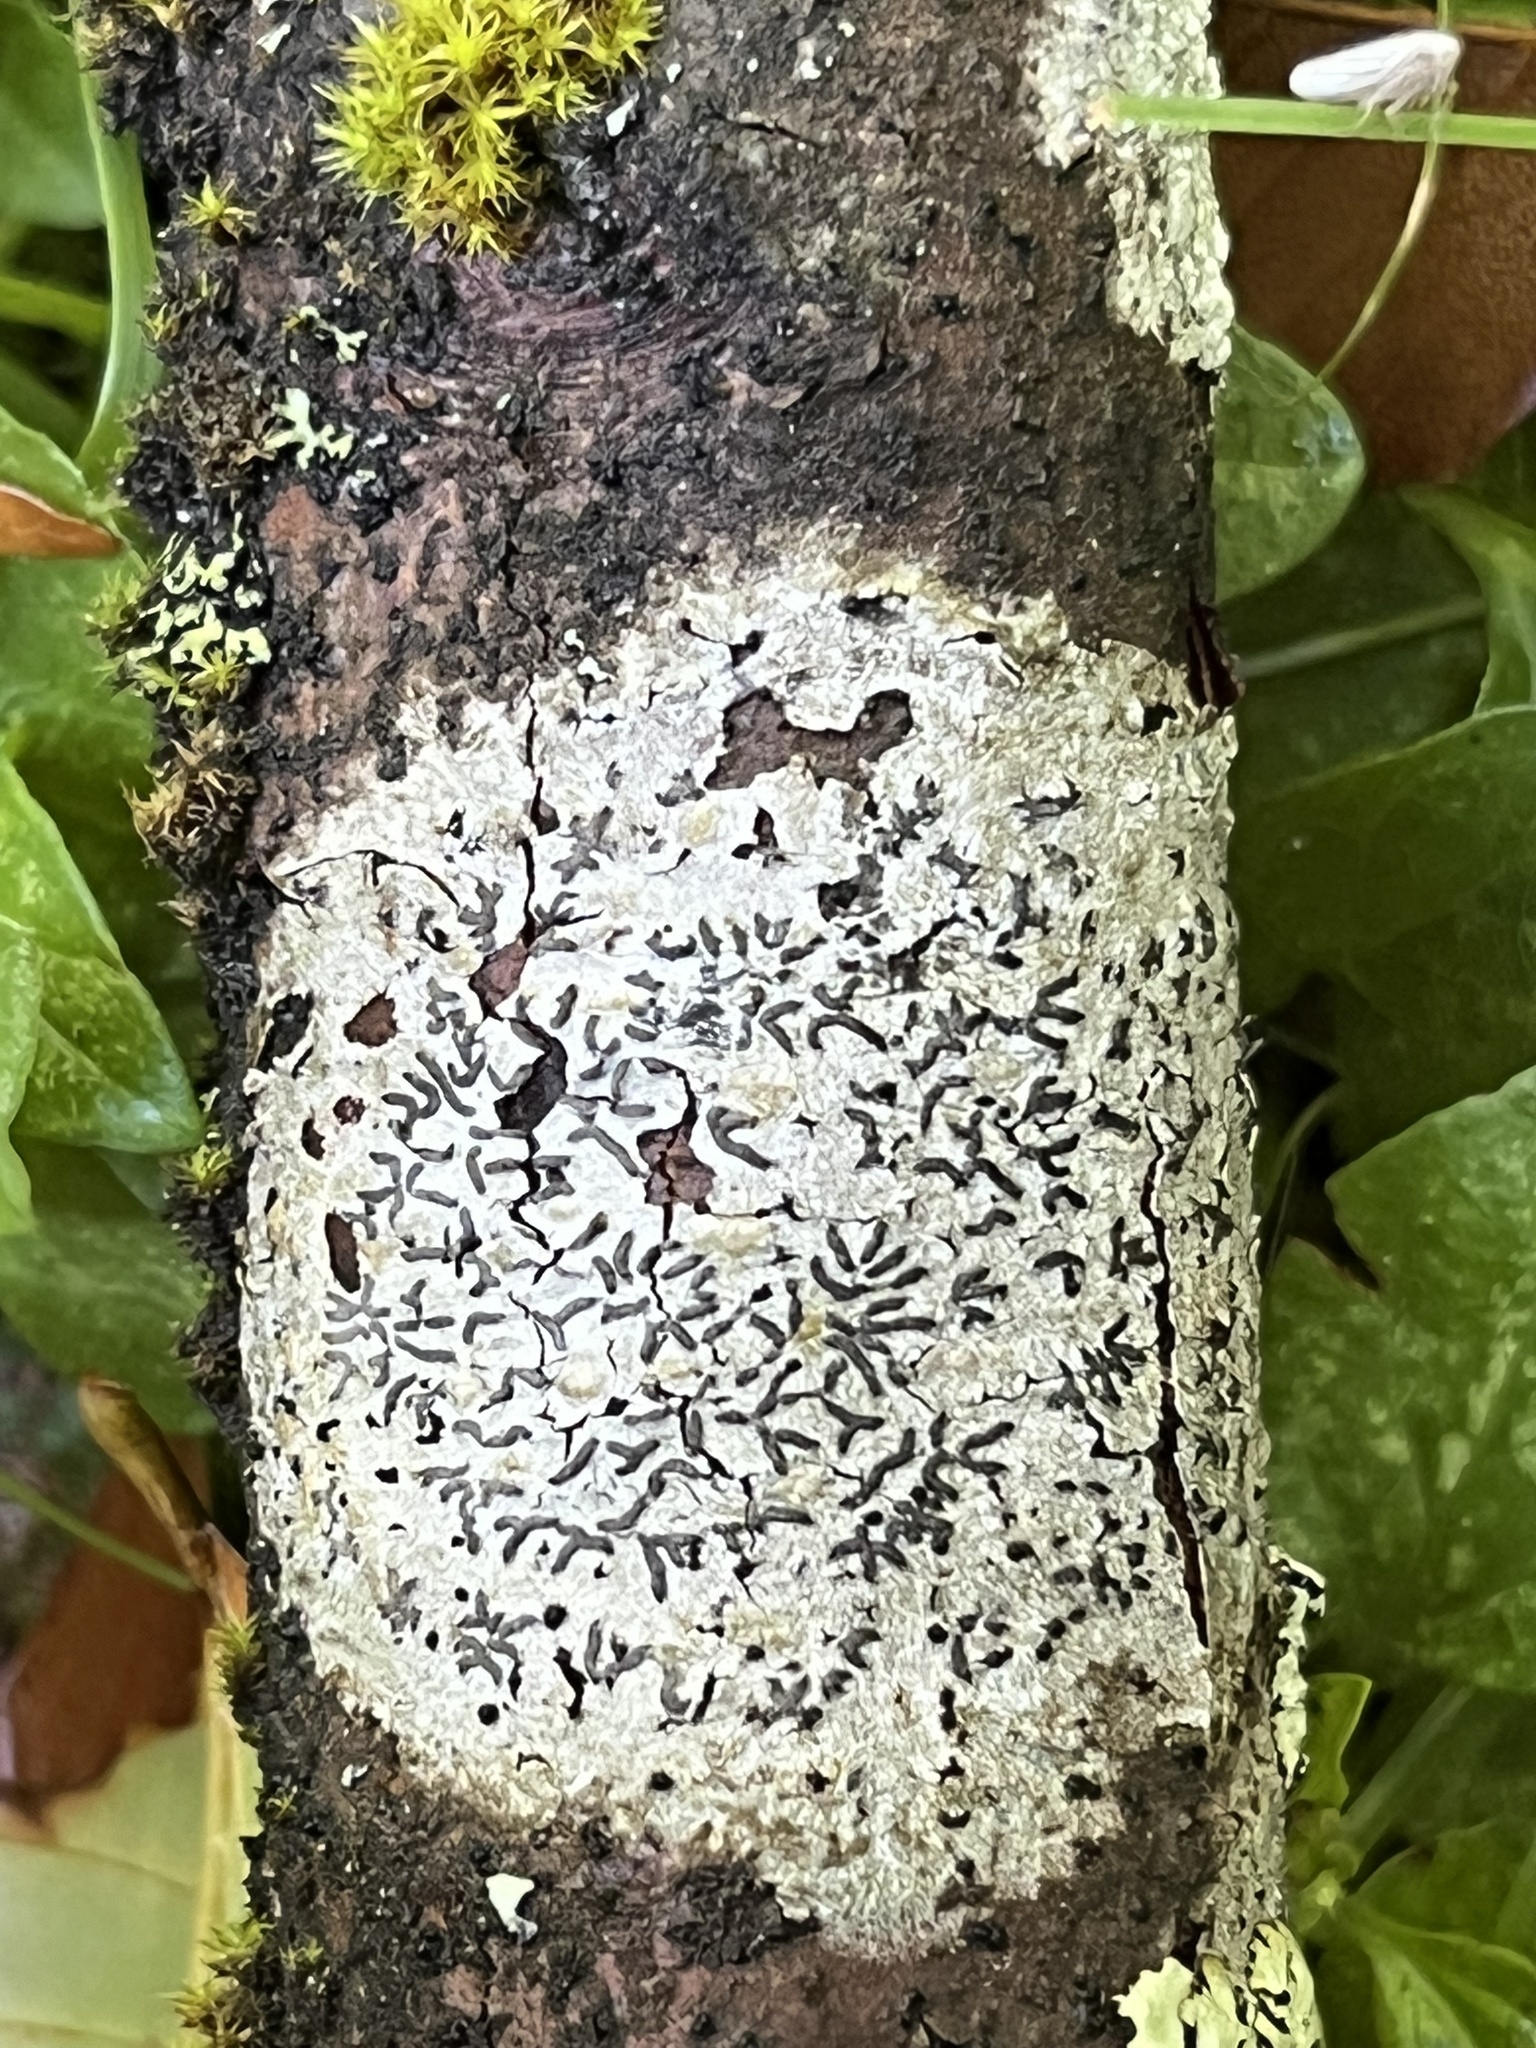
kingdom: Fungi
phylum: Ascomycota
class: Lecanoromycetes
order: Ostropales
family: Graphidaceae
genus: Graphis
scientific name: Graphis scripta
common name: Script lichen
